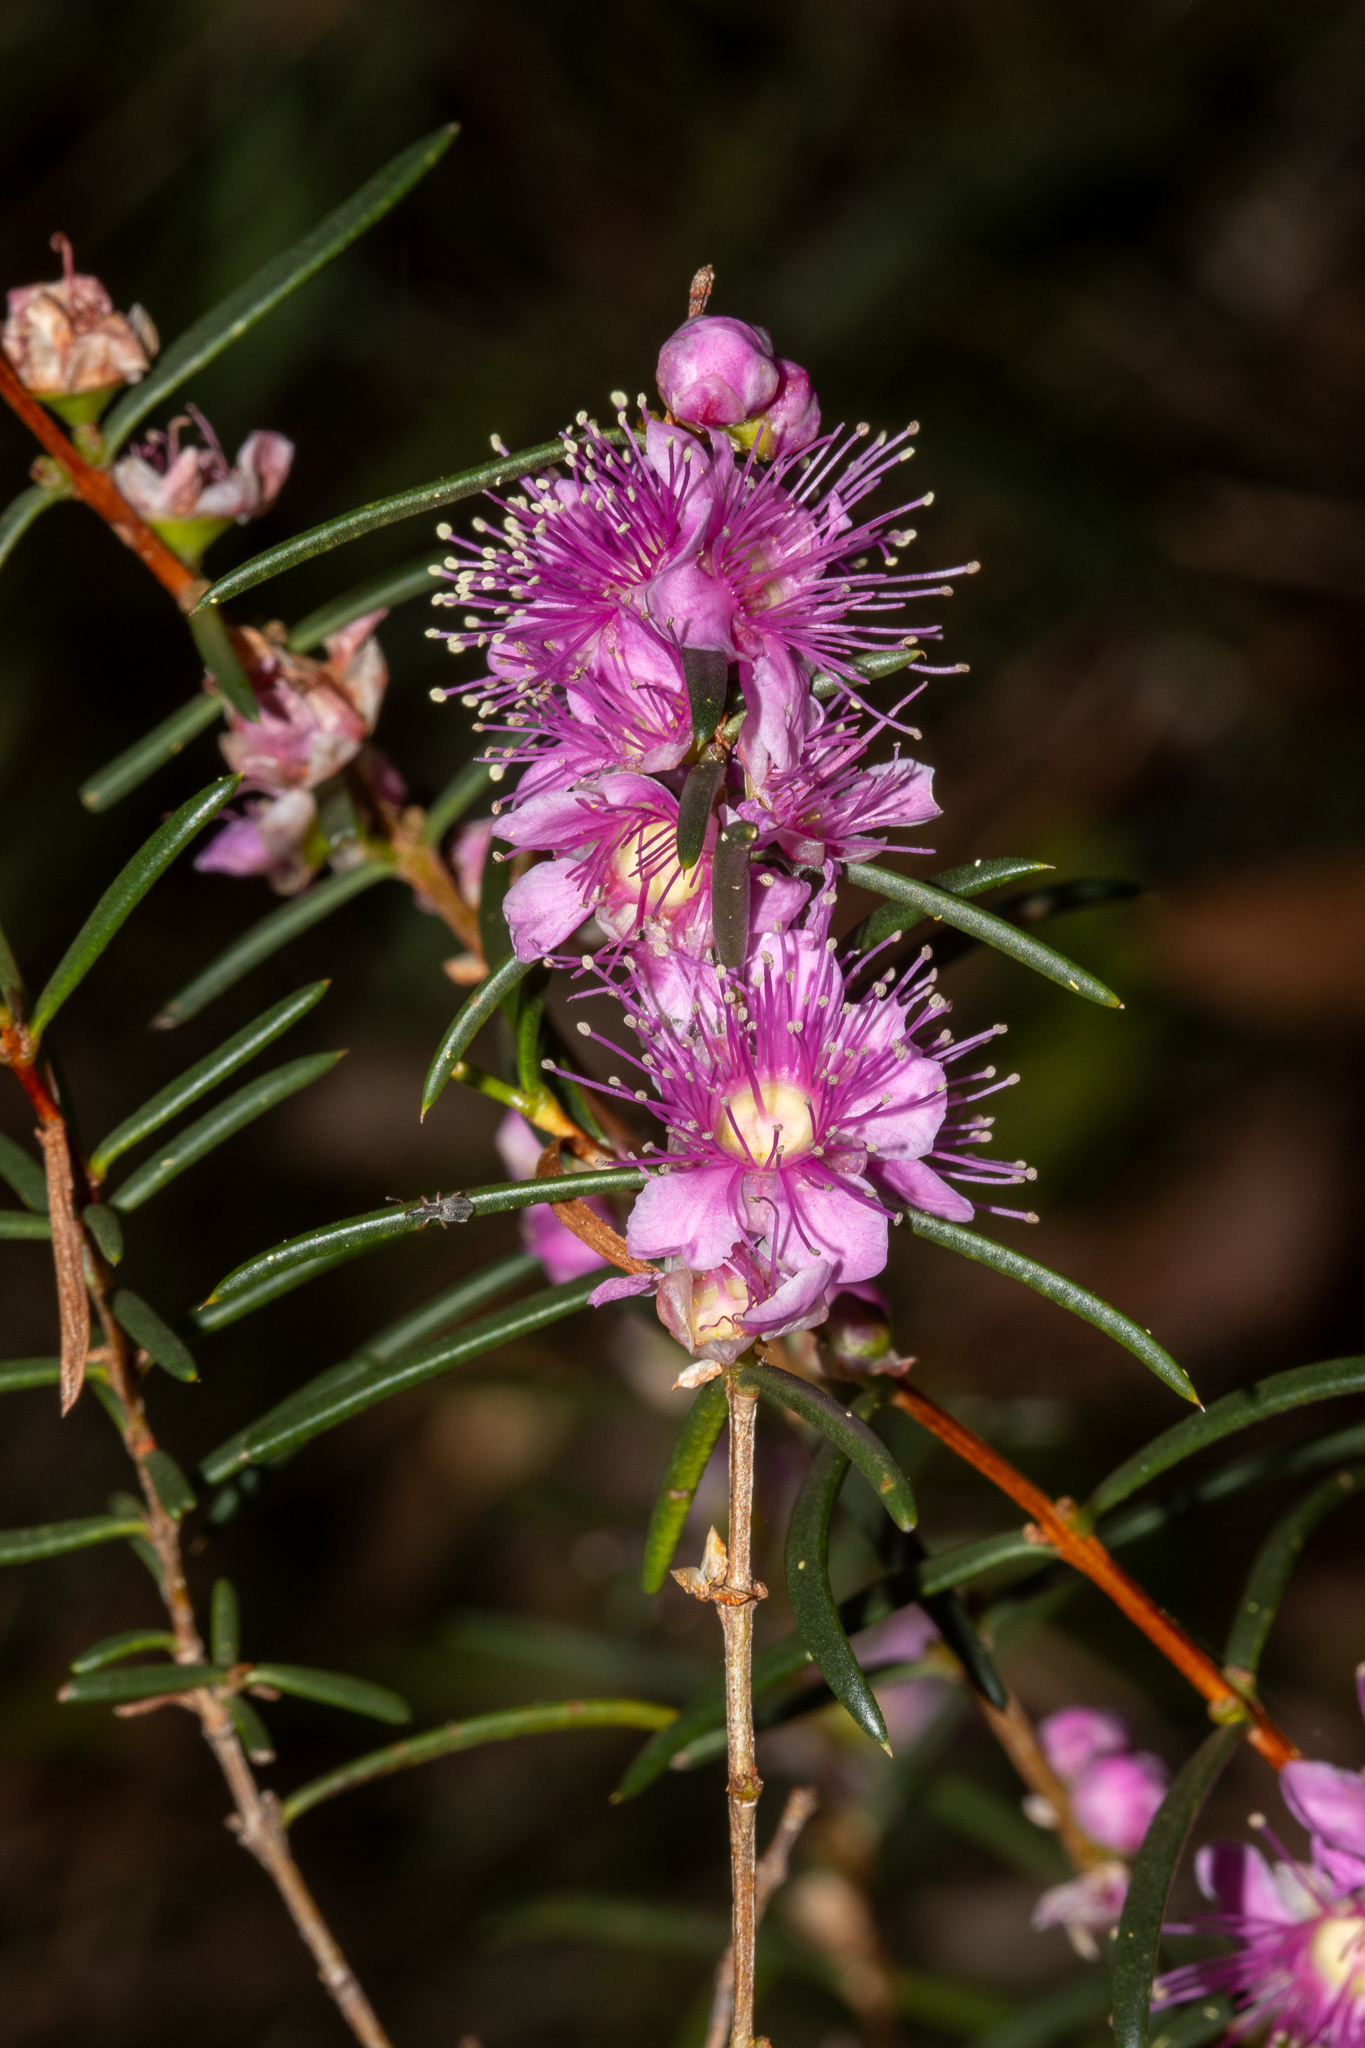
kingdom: Plantae
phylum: Tracheophyta
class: Magnoliopsida
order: Myrtales
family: Myrtaceae
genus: Hypocalymma
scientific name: Hypocalymma robustum
